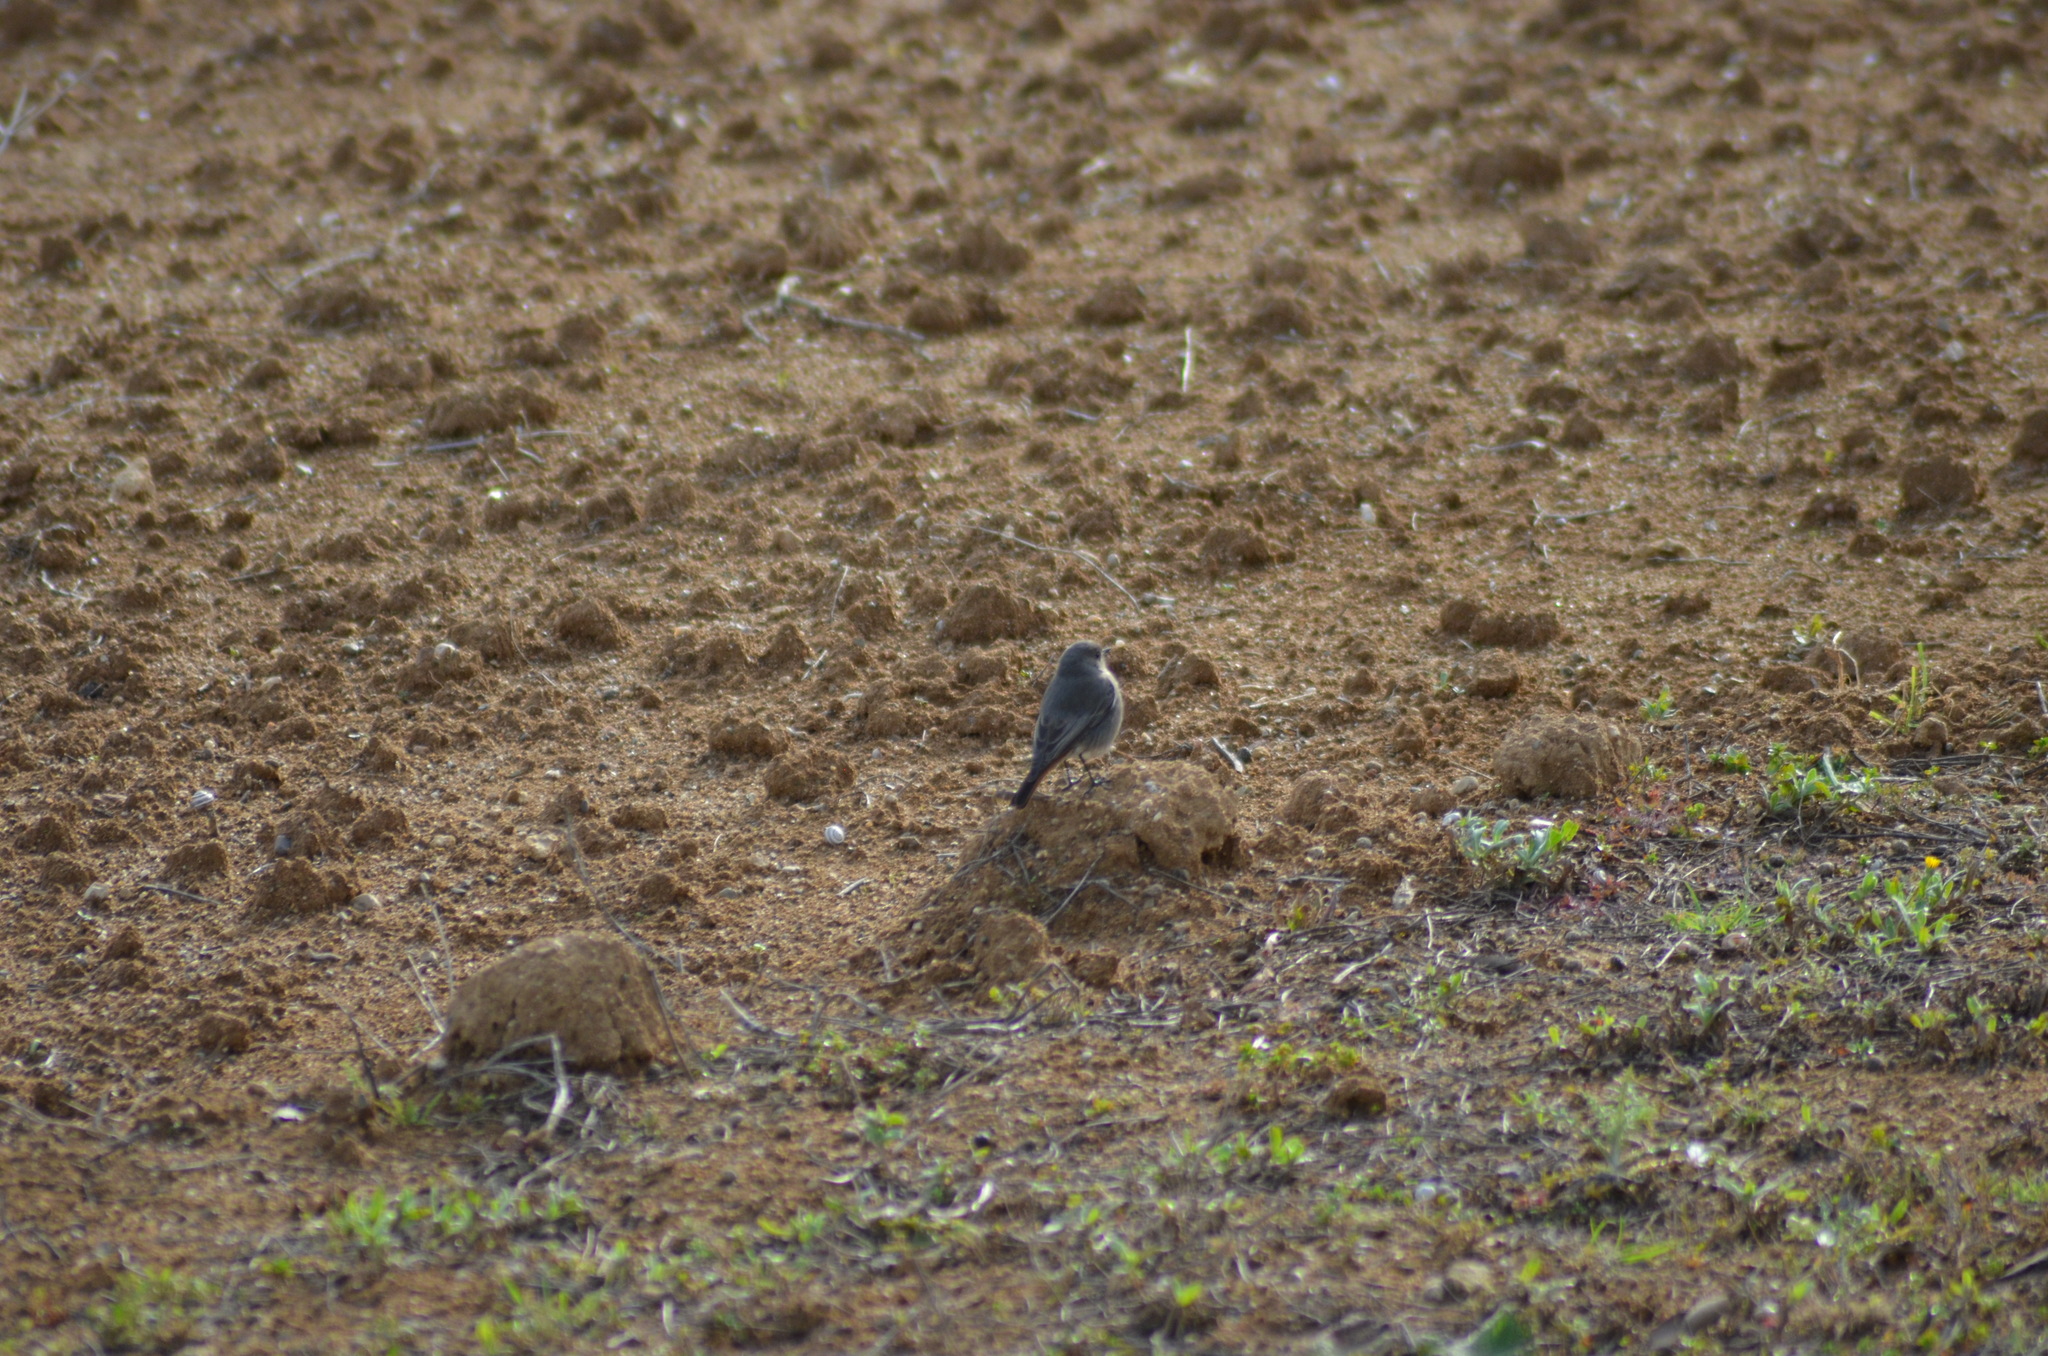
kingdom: Animalia
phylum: Chordata
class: Aves
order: Passeriformes
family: Muscicapidae
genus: Phoenicurus
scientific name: Phoenicurus ochruros
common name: Black redstart
